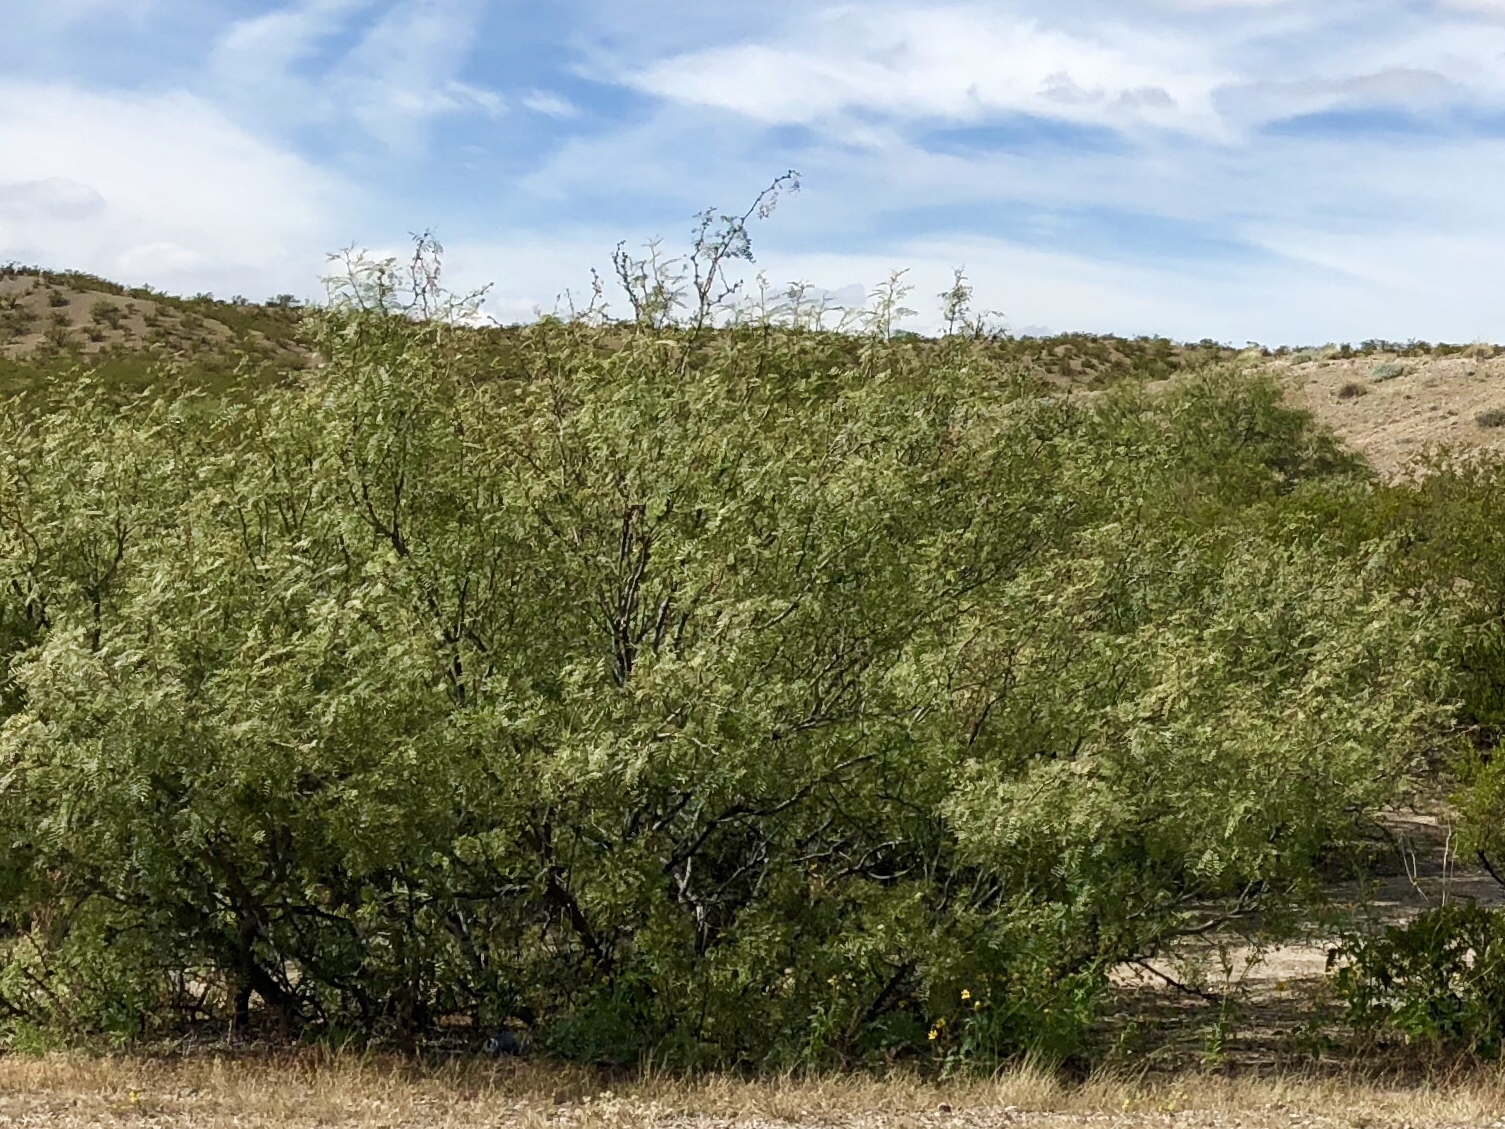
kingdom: Plantae
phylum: Tracheophyta
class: Magnoliopsida
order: Fabales
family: Fabaceae
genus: Prosopis
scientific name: Prosopis glandulosa
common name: Honey mesquite
